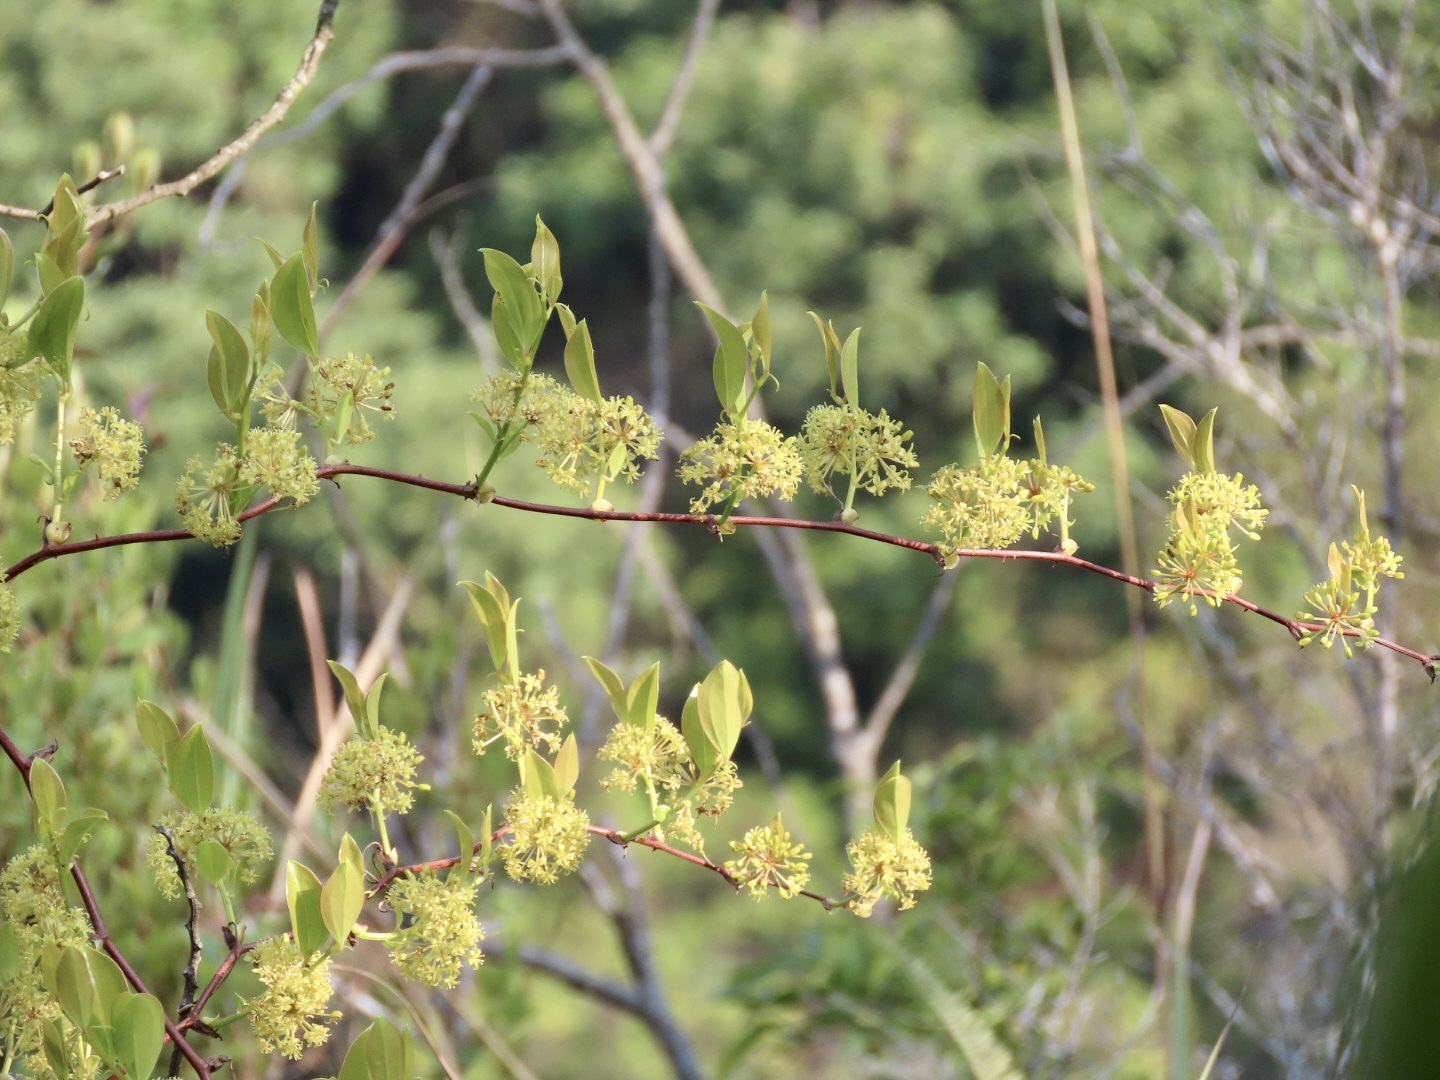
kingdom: Plantae
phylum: Tracheophyta
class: Liliopsida
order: Liliales
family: Smilacaceae
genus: Smilax
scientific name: Smilax china
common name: Chinaroot
